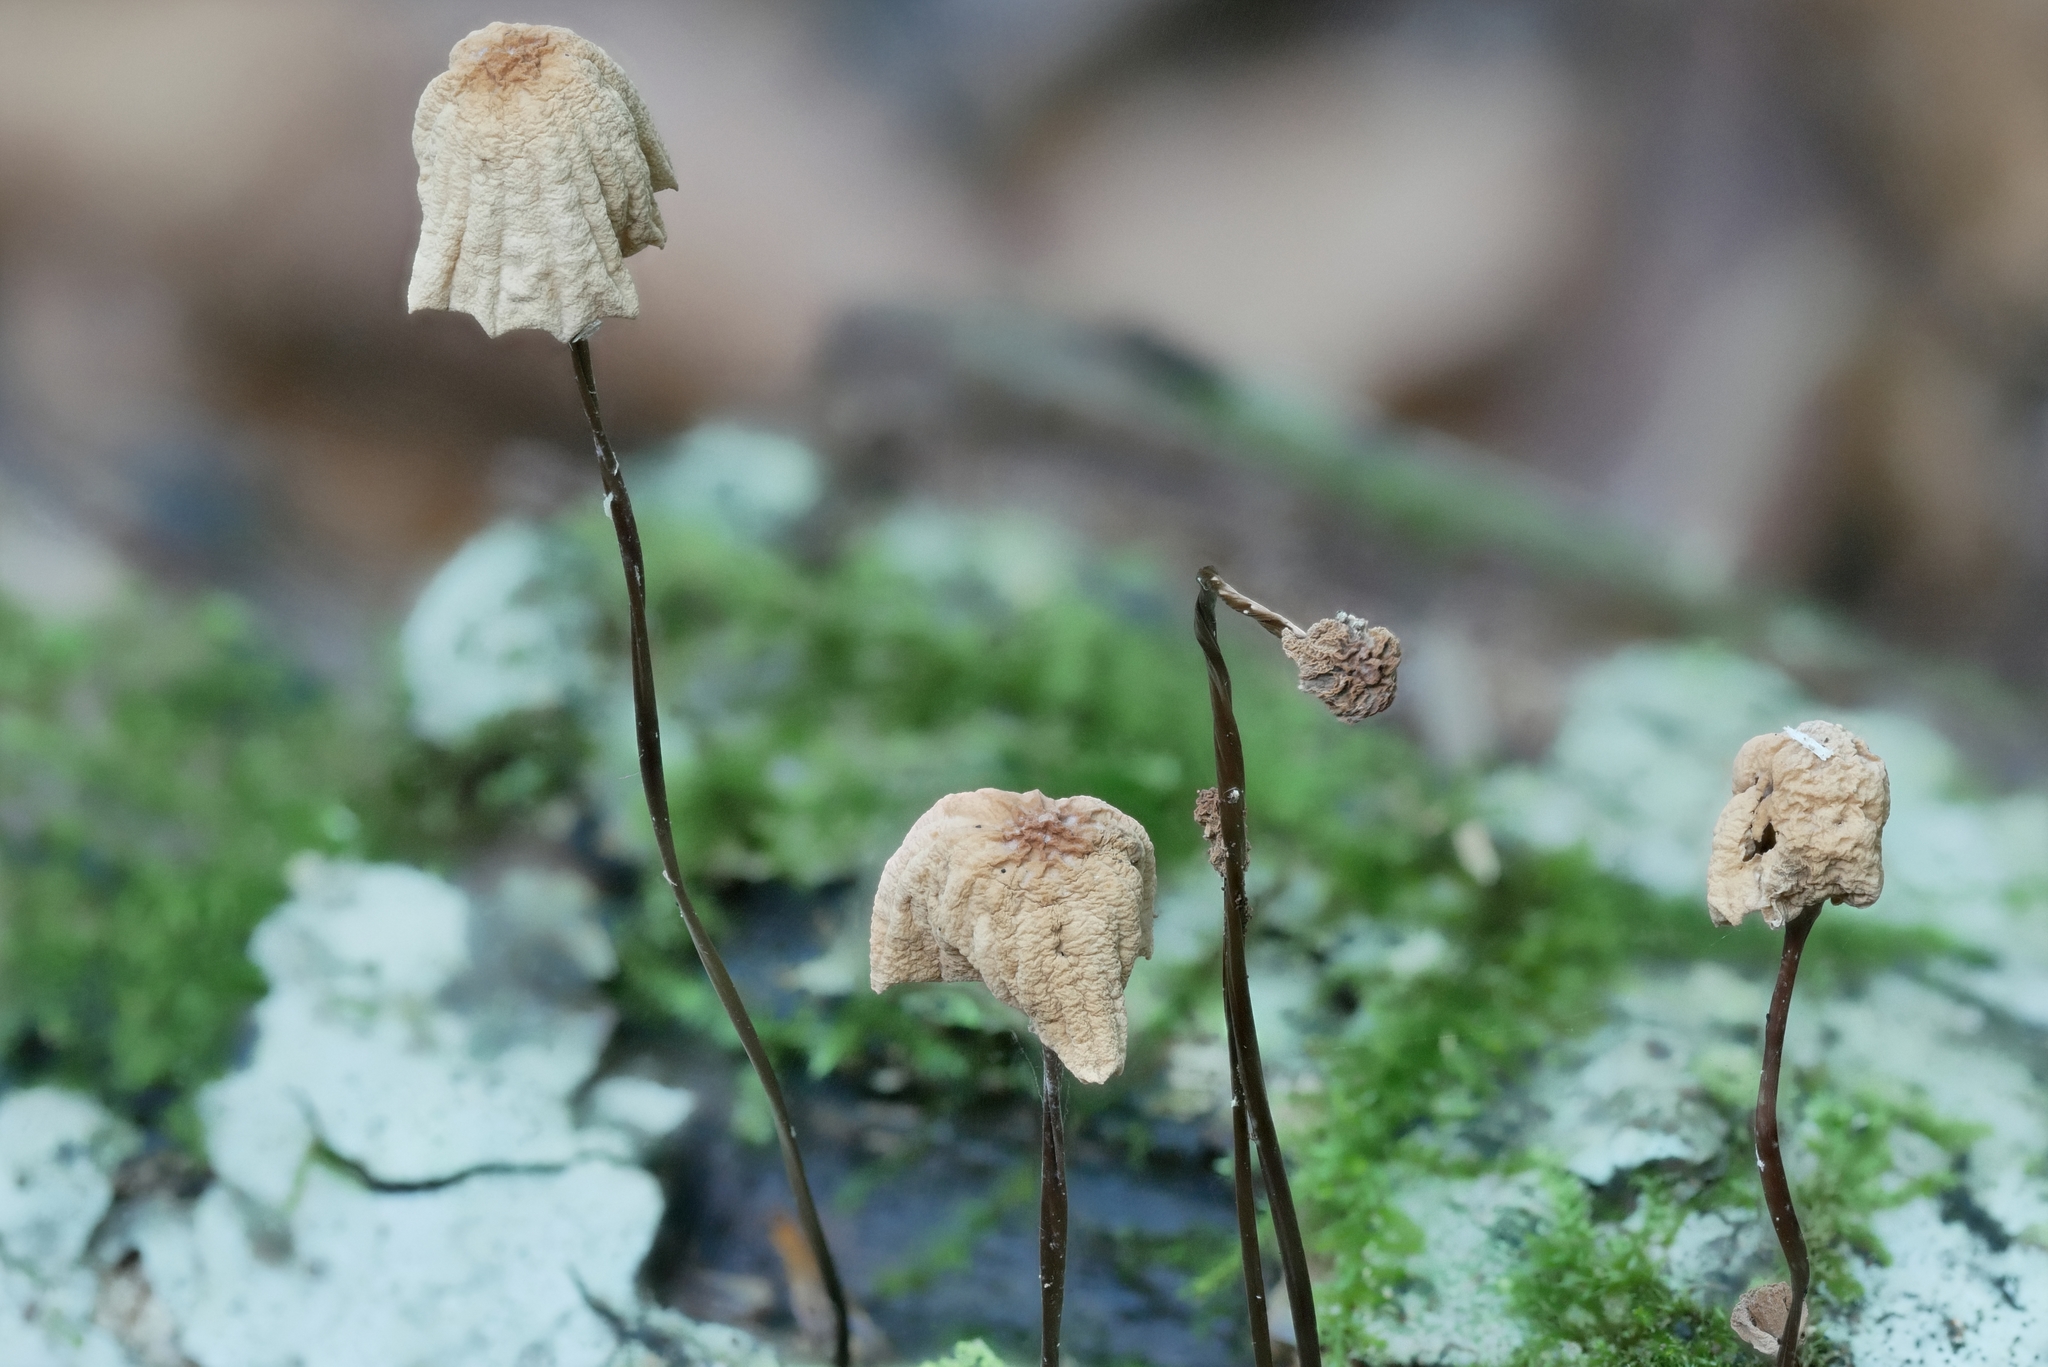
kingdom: Fungi
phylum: Basidiomycota
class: Agaricomycetes
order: Agaricales
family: Marasmiaceae
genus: Marasmius
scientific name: Marasmius pulcherripes
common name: Rosy parachute
